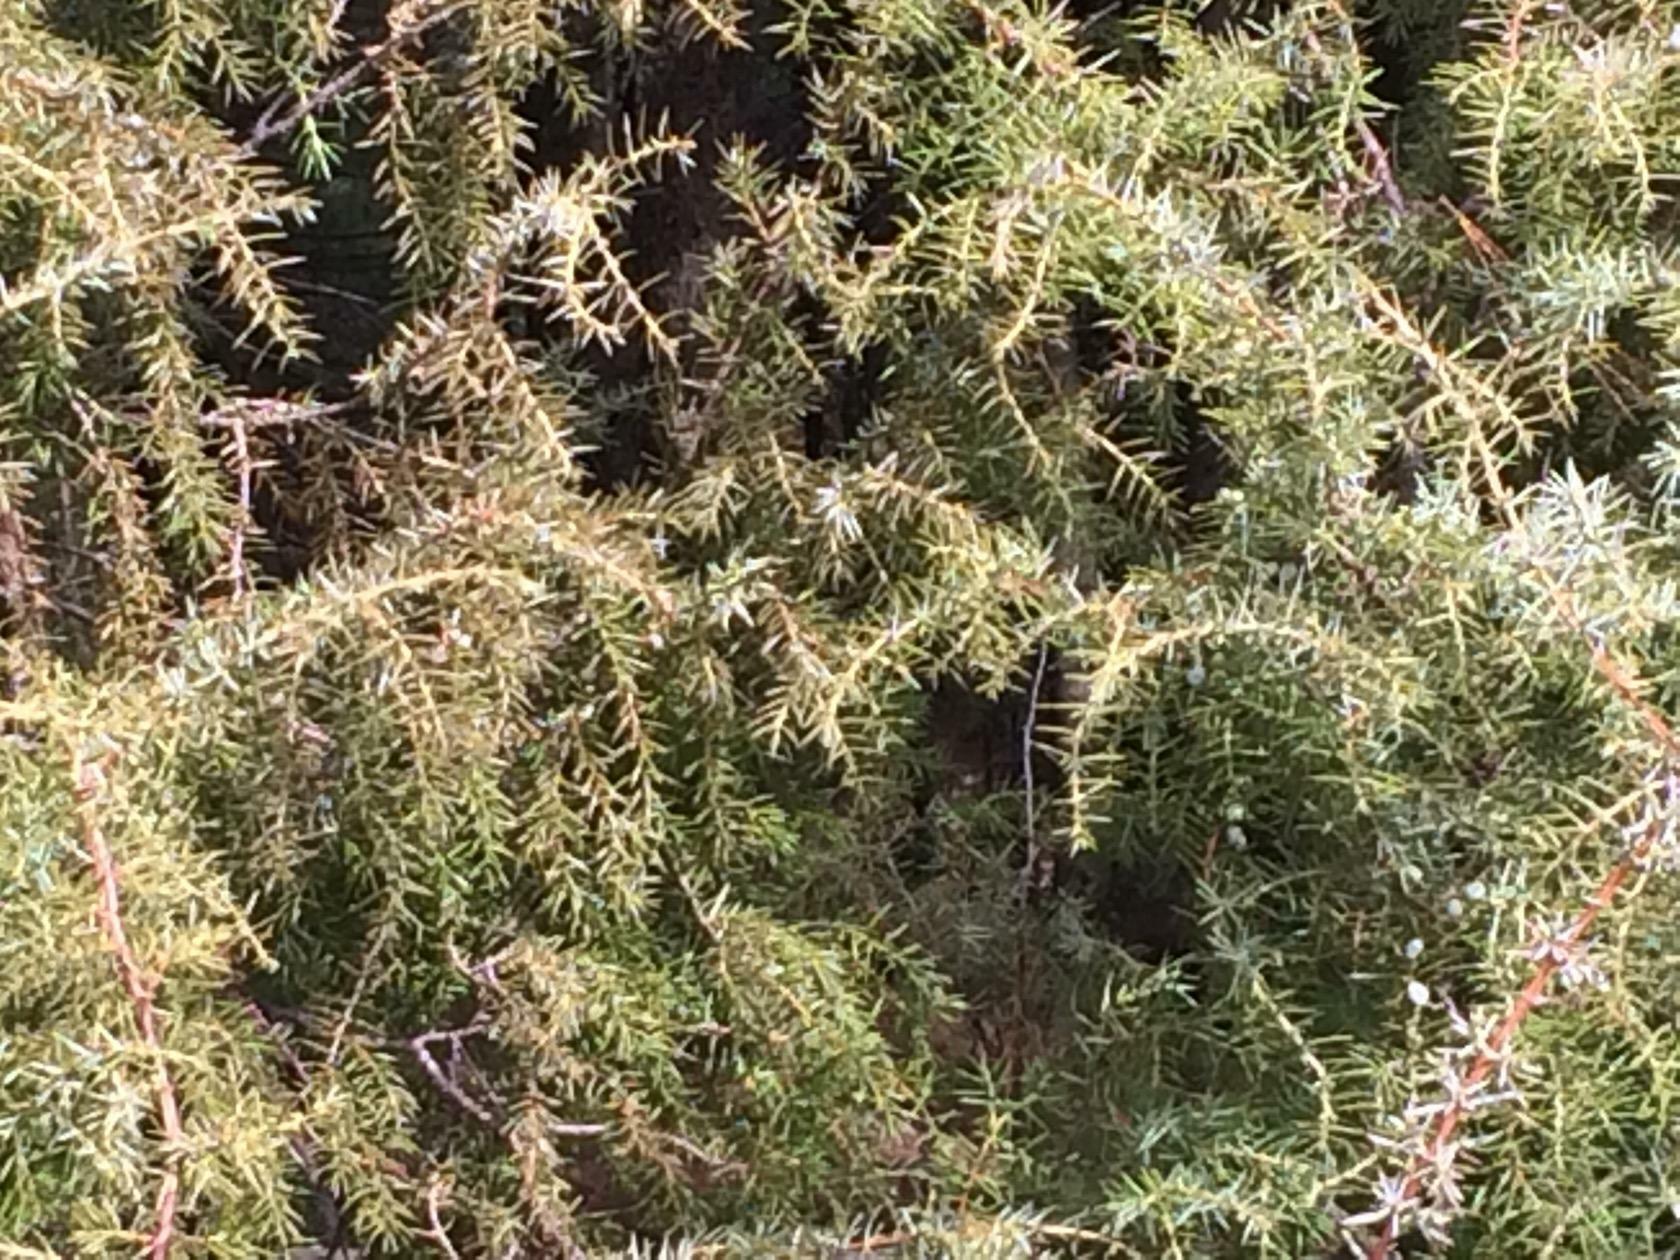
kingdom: Plantae
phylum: Tracheophyta
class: Pinopsida
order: Pinales
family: Cupressaceae
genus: Juniperus
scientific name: Juniperus communis
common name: Common juniper
